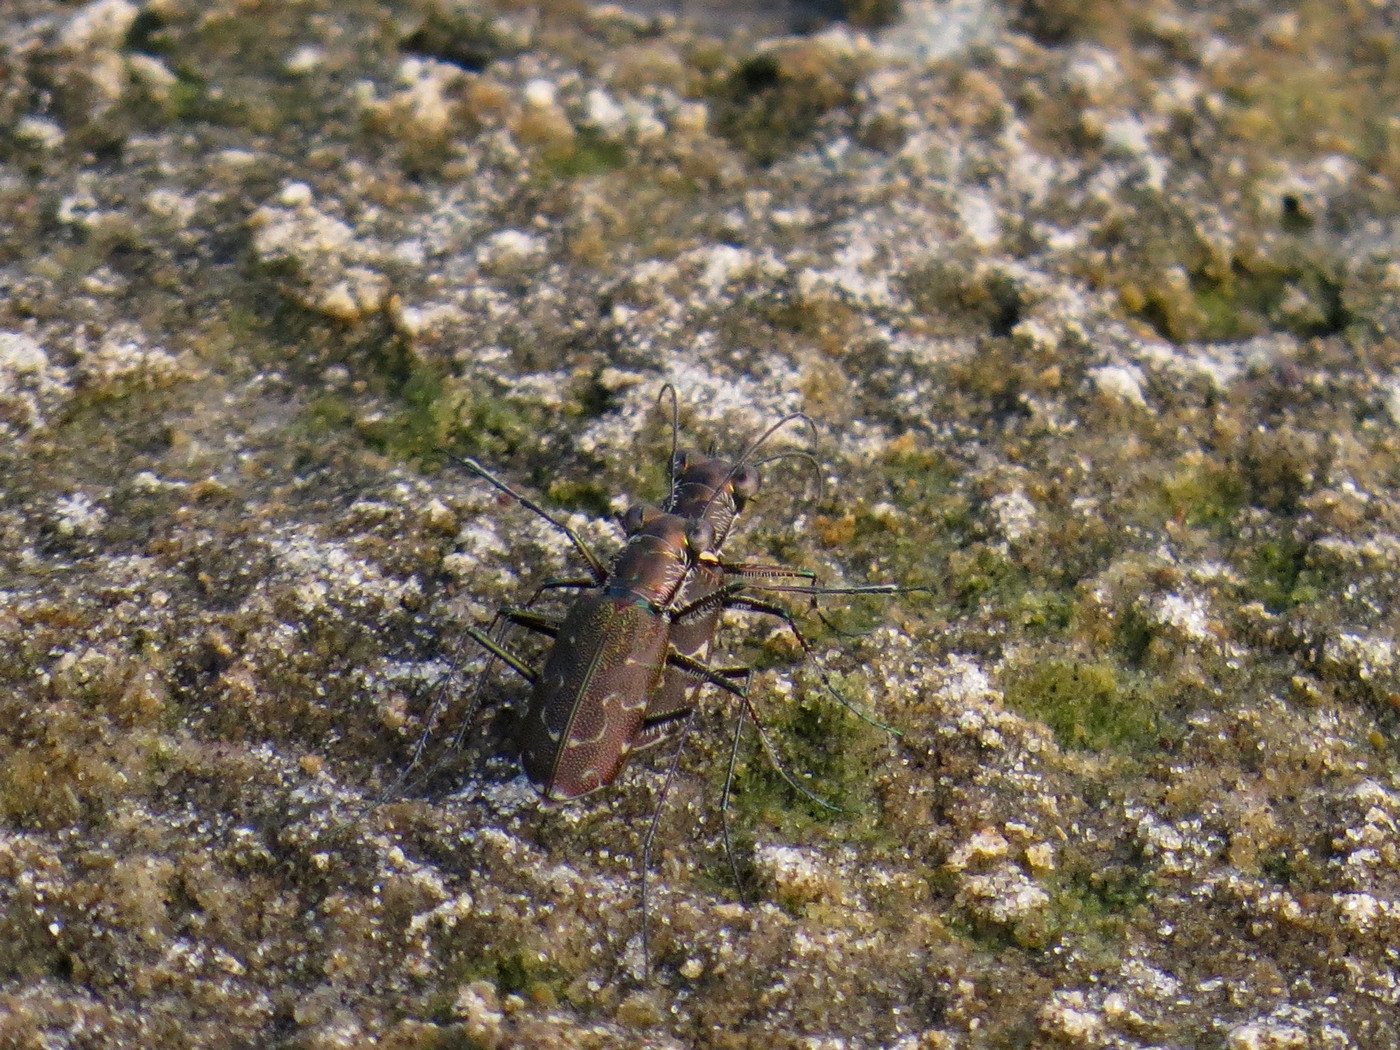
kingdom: Animalia
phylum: Arthropoda
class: Insecta
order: Coleoptera
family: Carabidae
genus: Cicindela
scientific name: Cicindela trifasciata
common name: Mudflat tiger beetle
